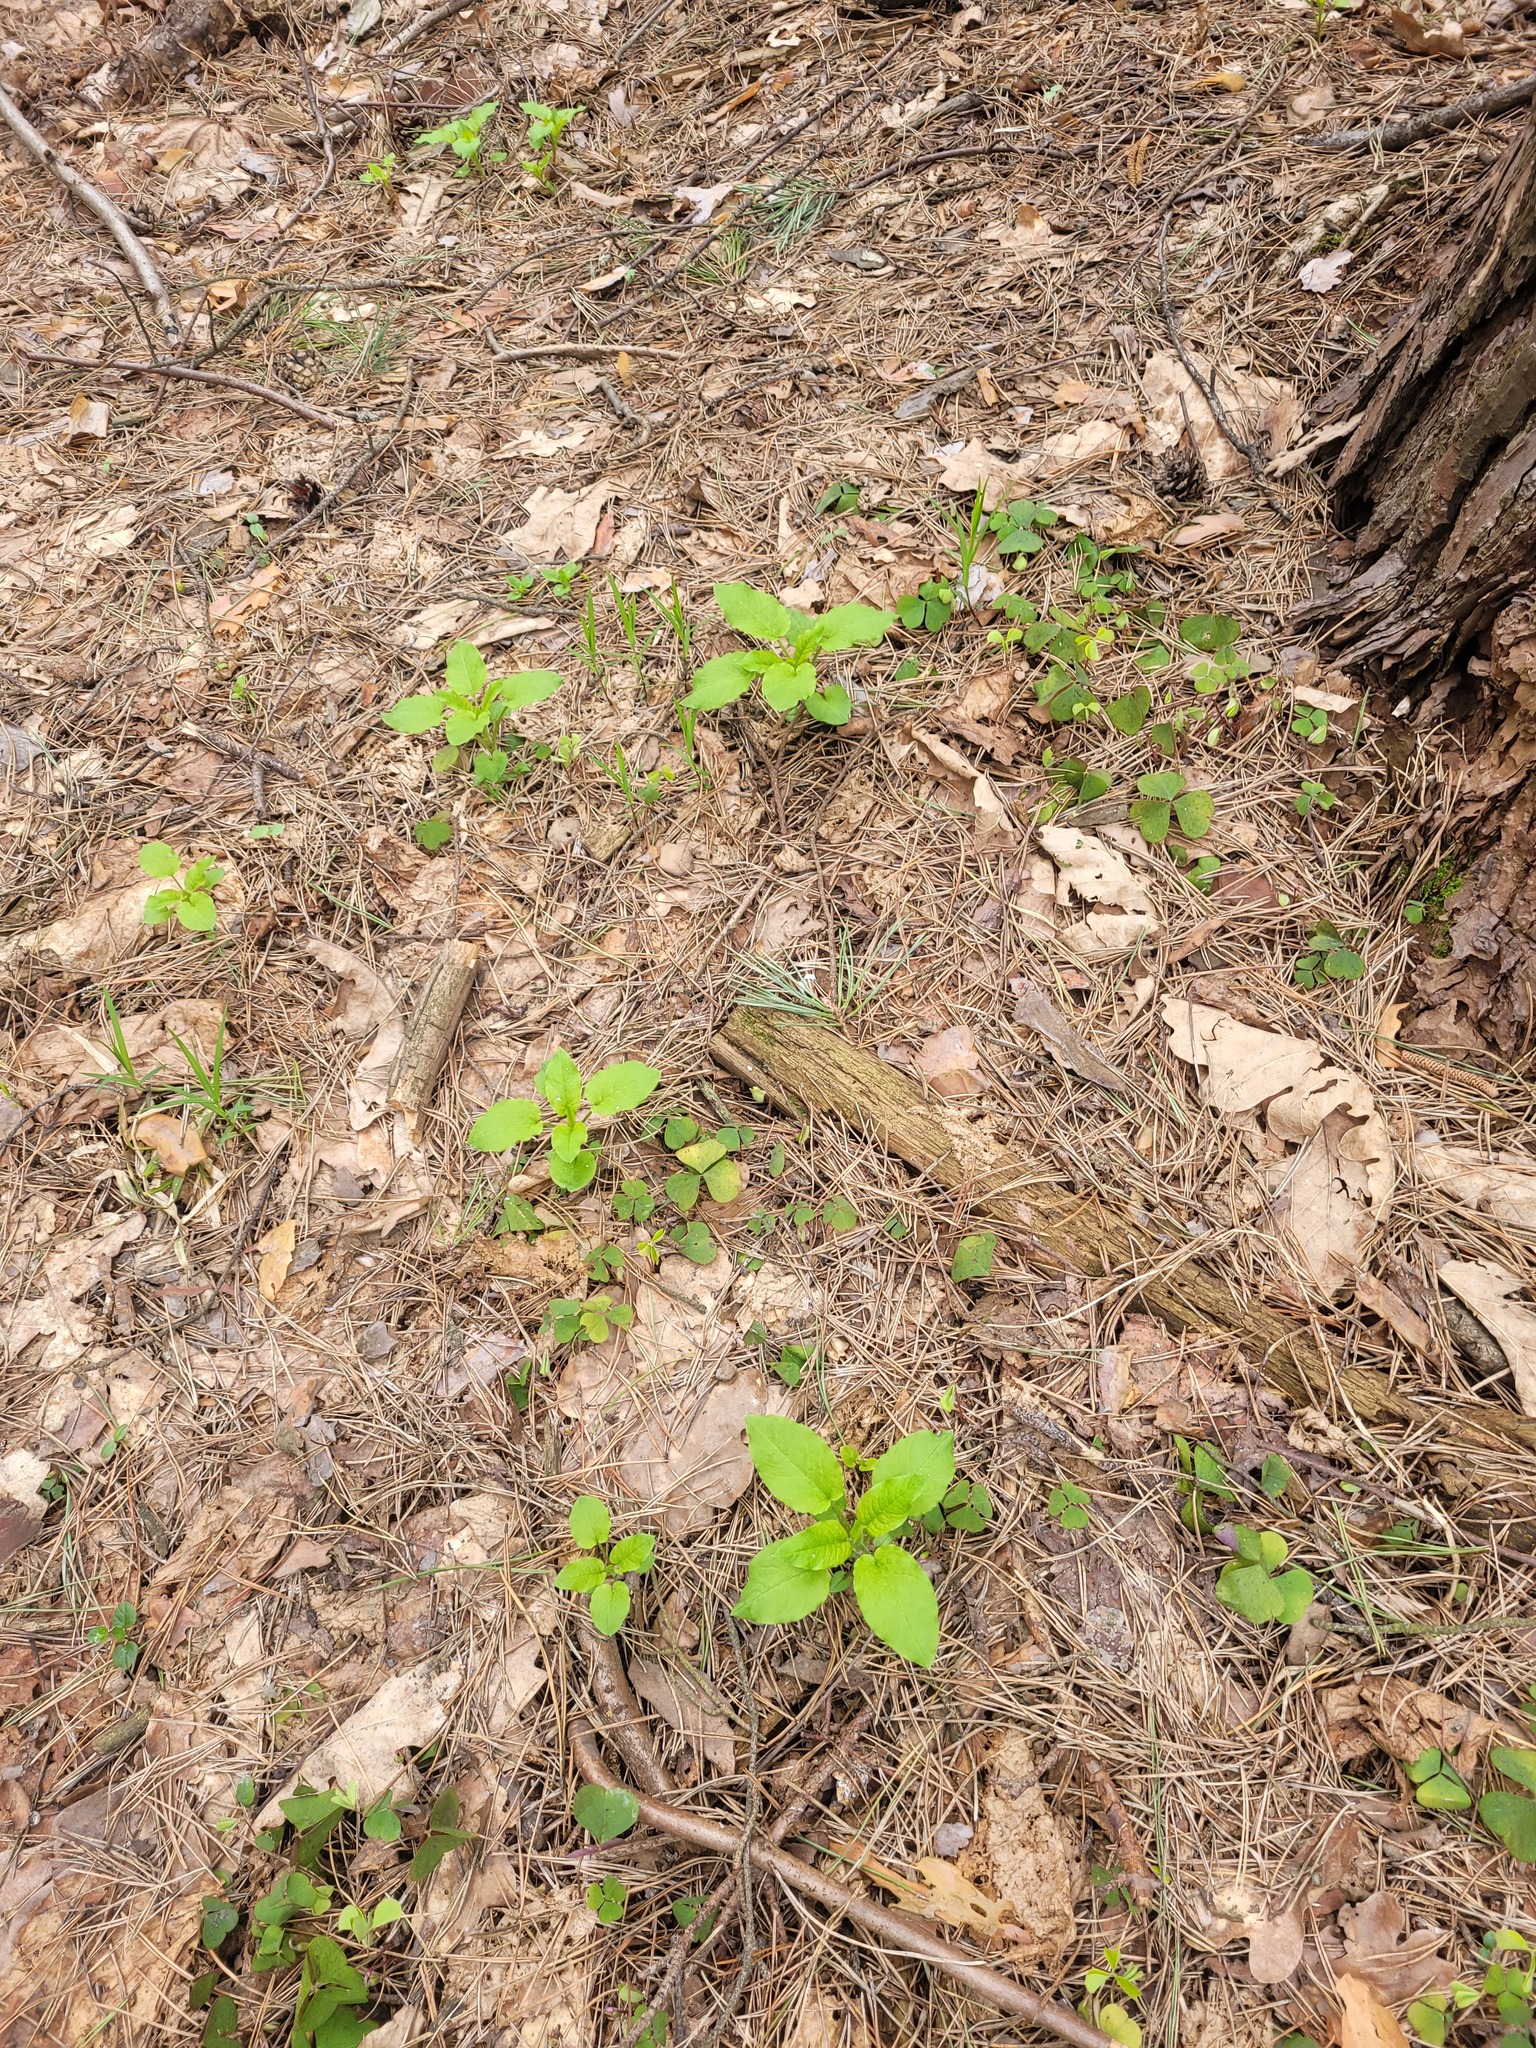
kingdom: Plantae
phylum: Tracheophyta
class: Magnoliopsida
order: Caryophyllales
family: Caryophyllaceae
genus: Stellaria
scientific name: Stellaria nemorum
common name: Wood stitchwort
